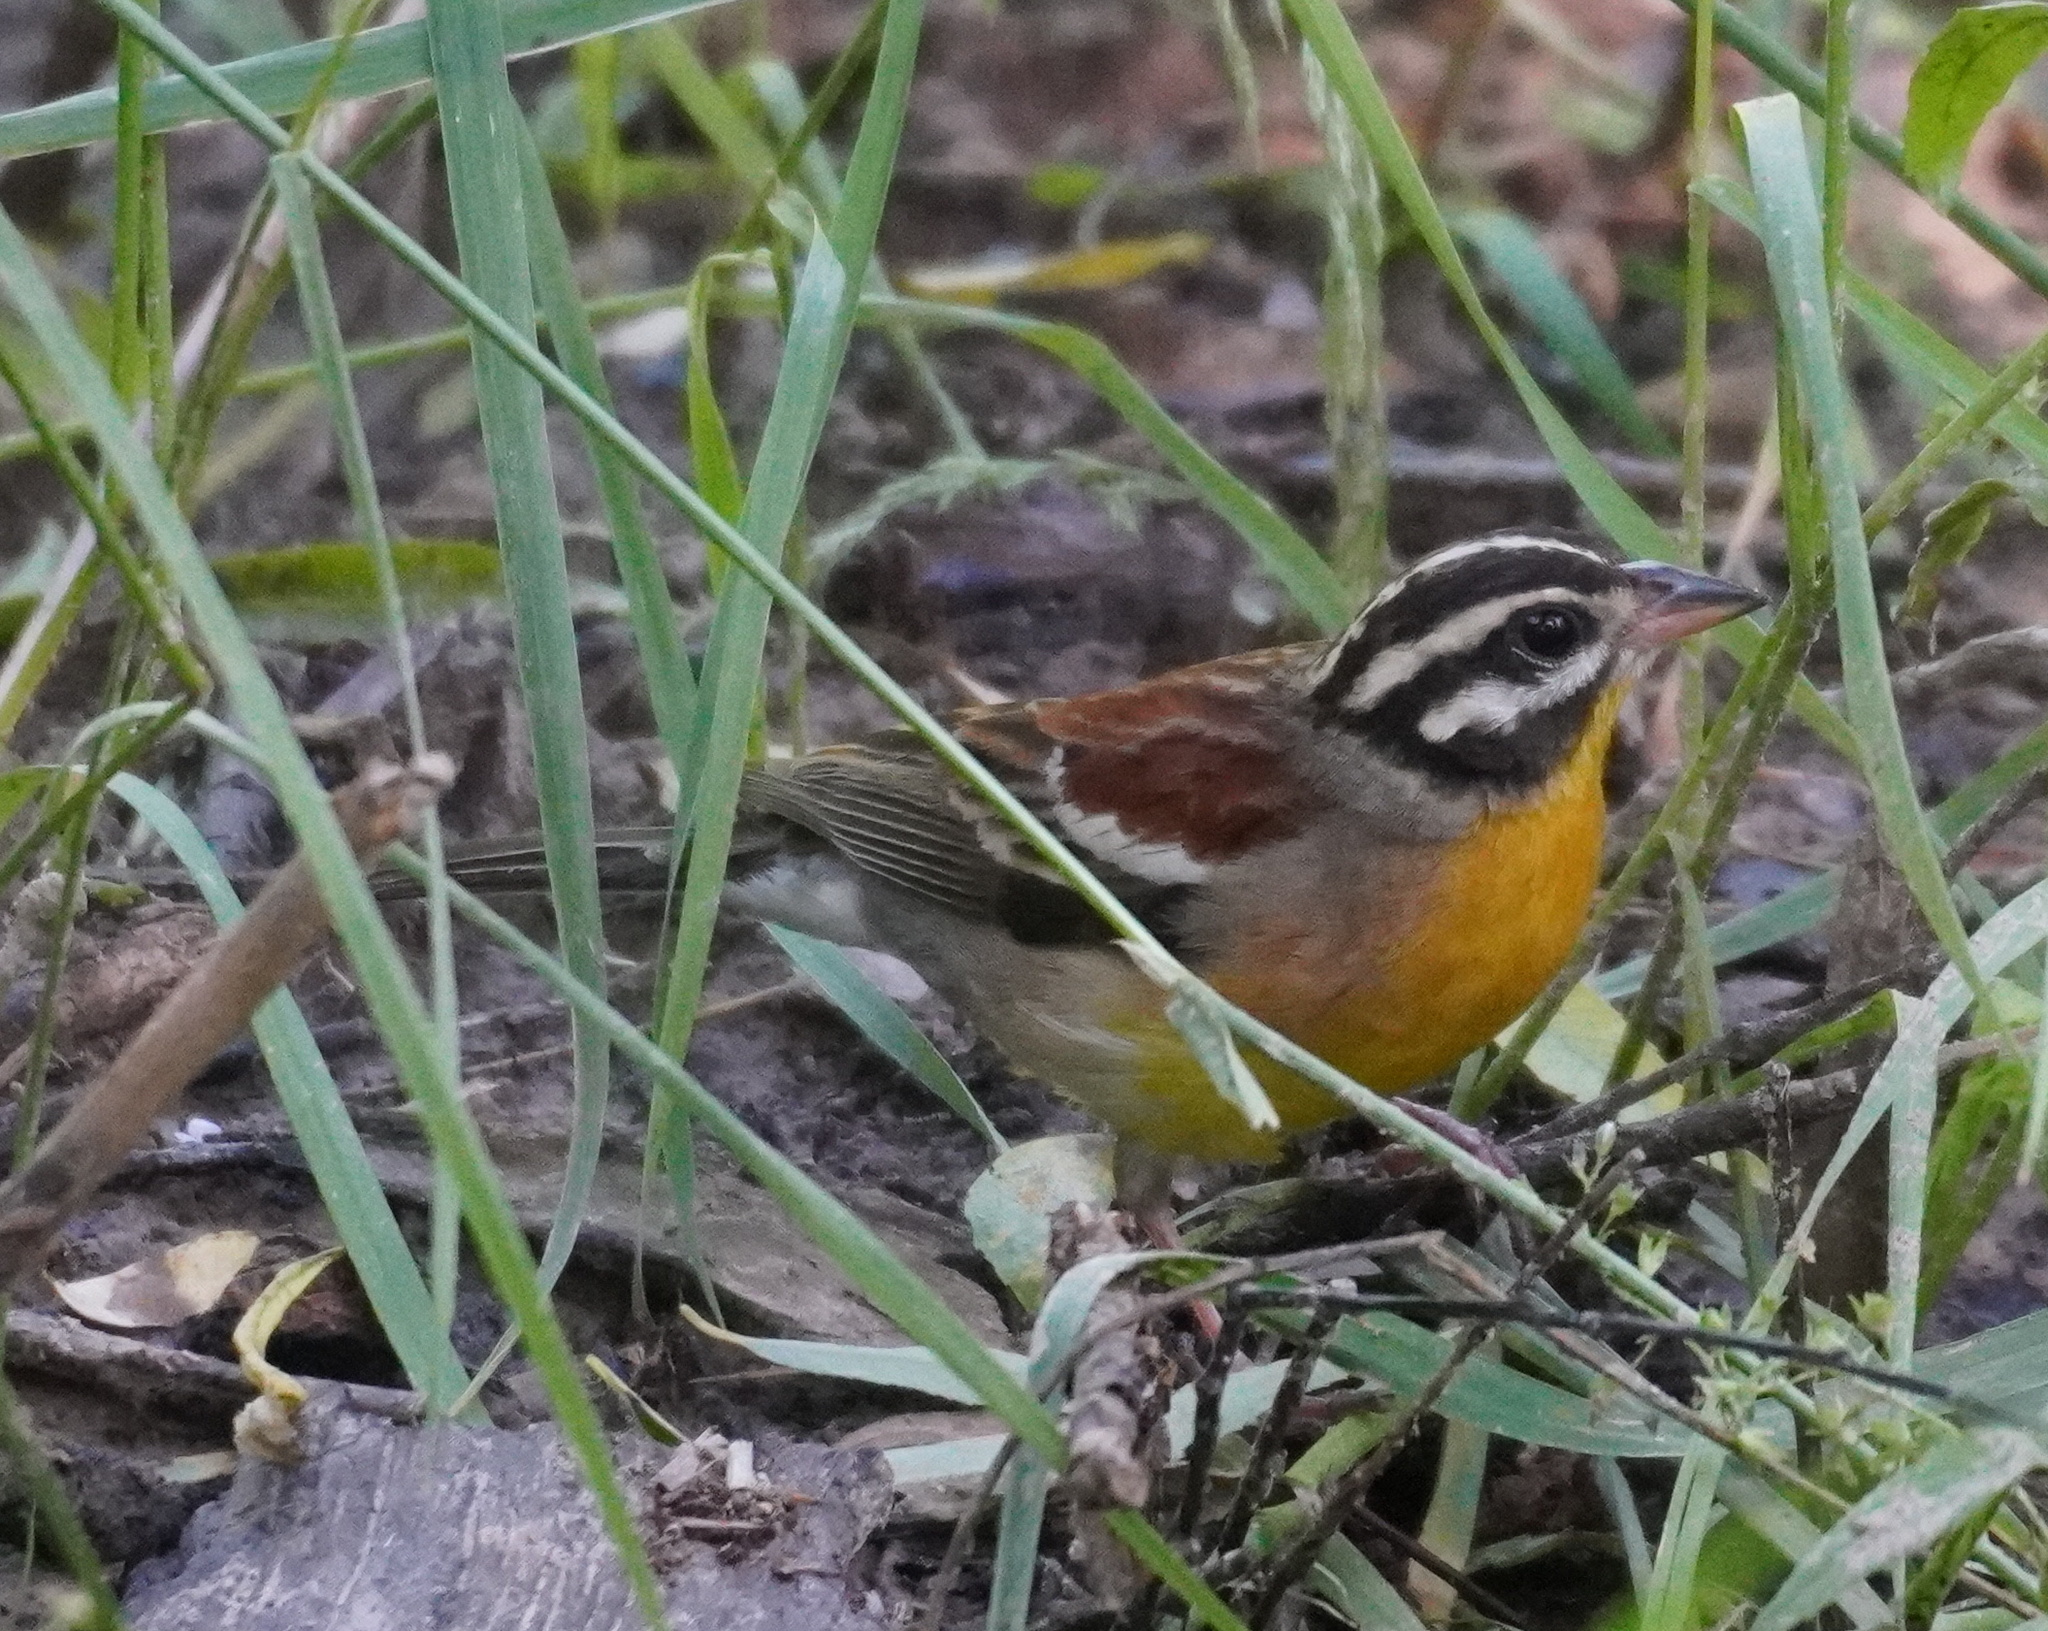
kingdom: Animalia
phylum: Chordata
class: Aves
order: Passeriformes
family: Emberizidae
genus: Emberiza
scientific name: Emberiza flaviventris
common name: Golden-breasted bunting
